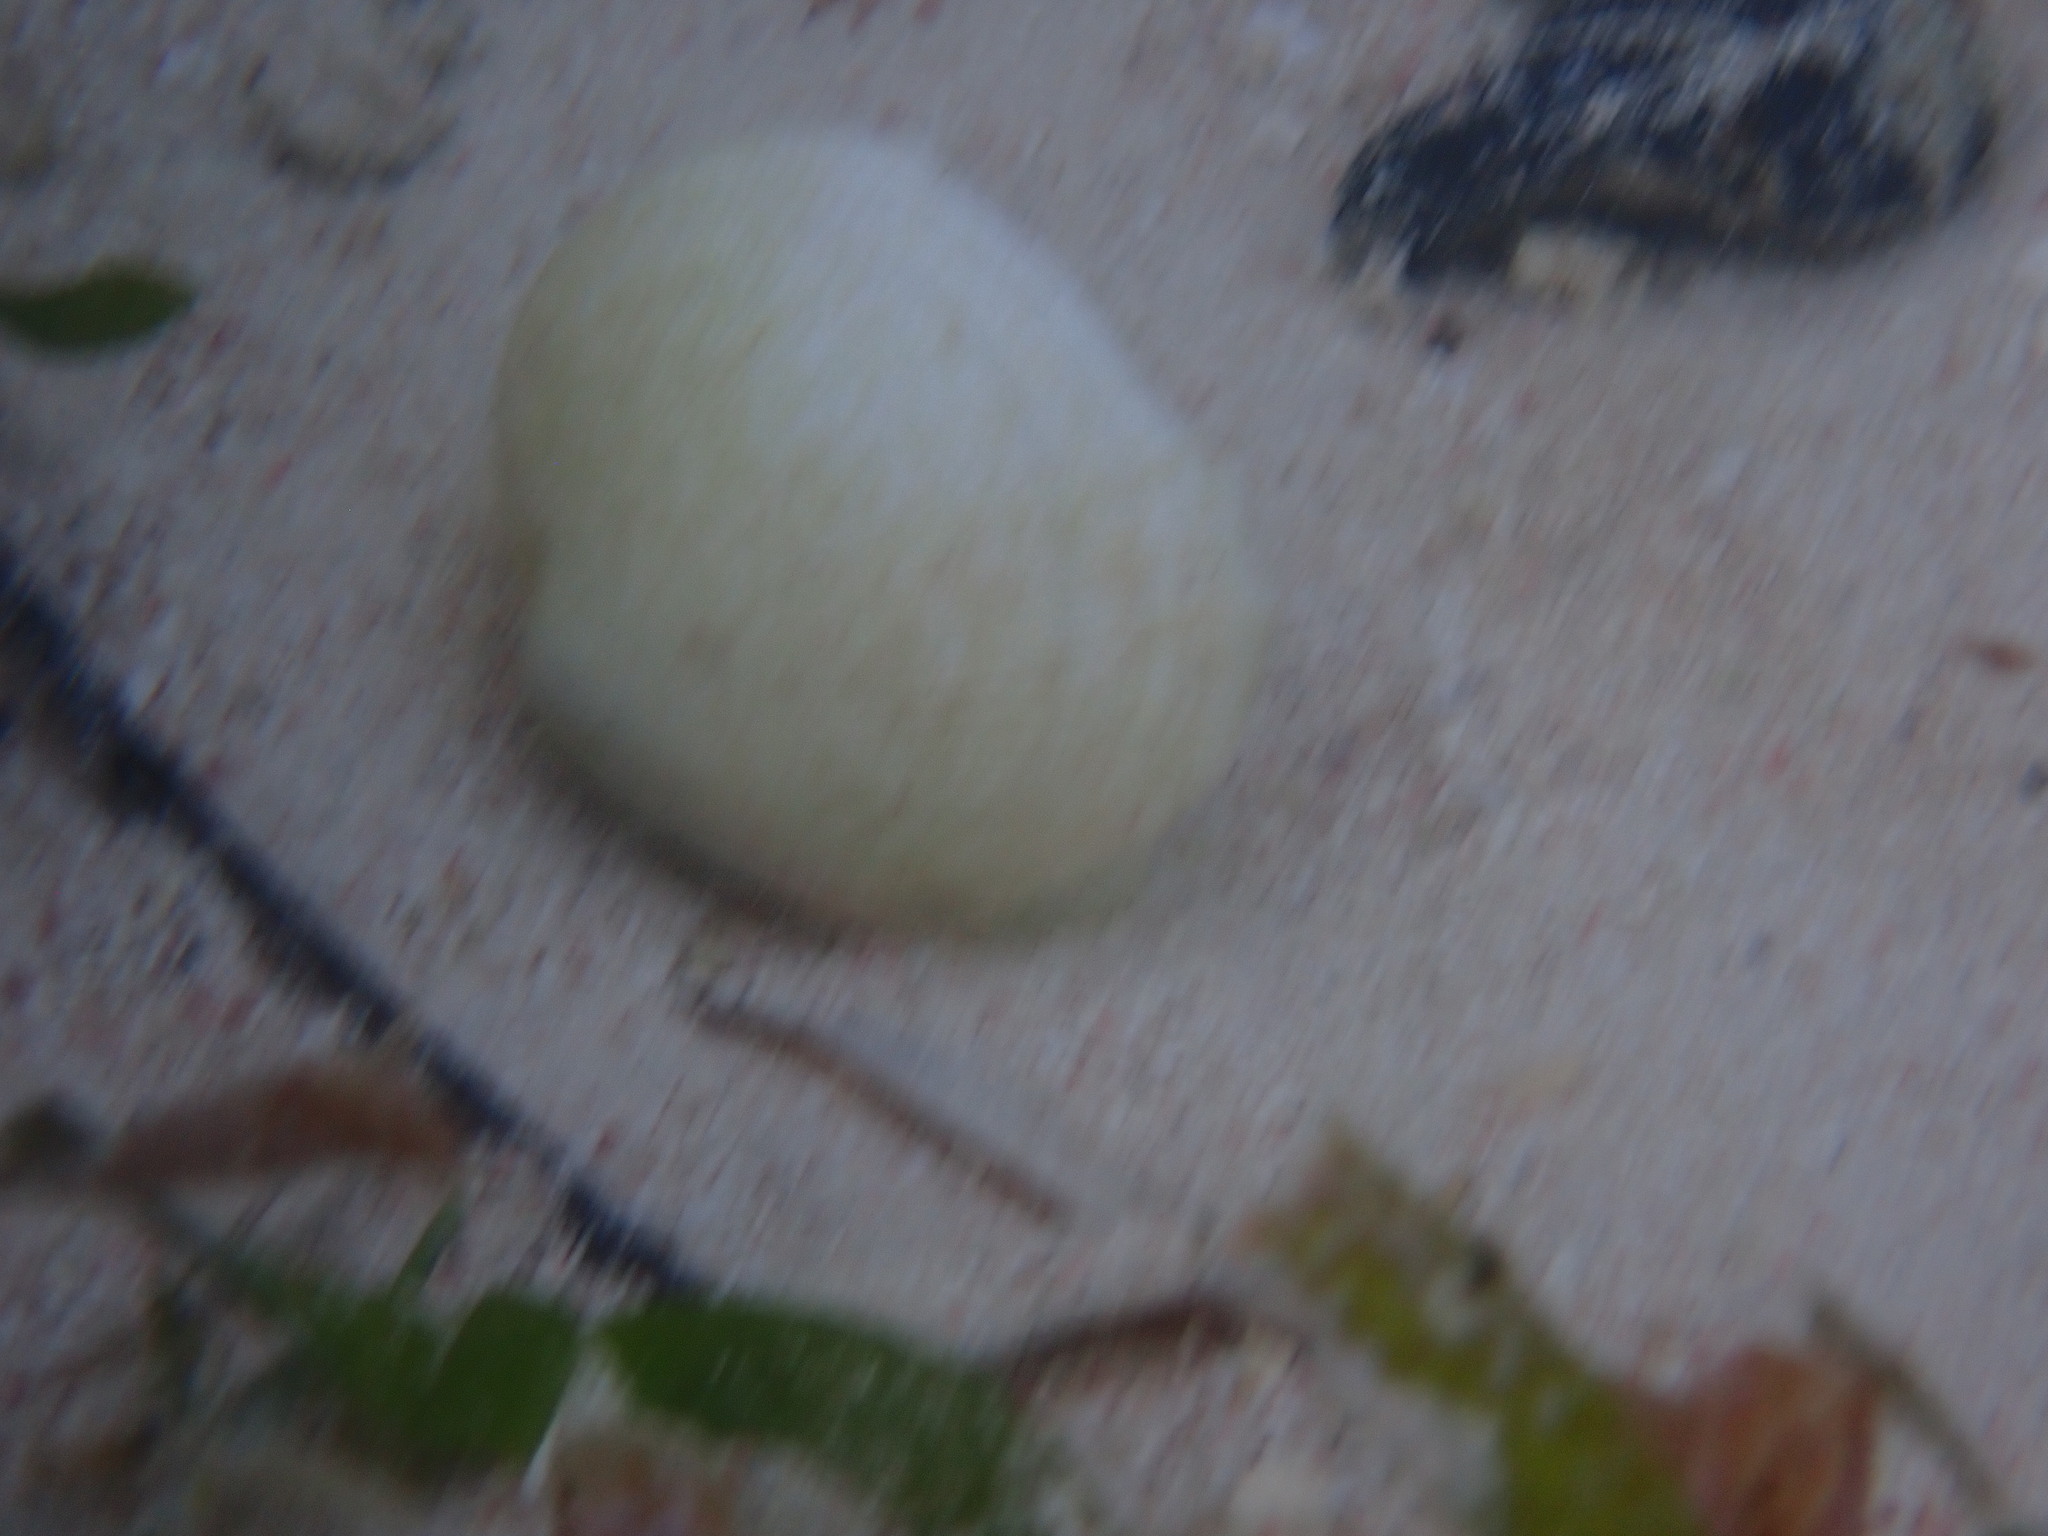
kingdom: Animalia
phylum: Mollusca
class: Bivalvia
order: Lucinida
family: Lucinidae
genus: Codakia
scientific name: Codakia orbicularis
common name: Tiger lucine
